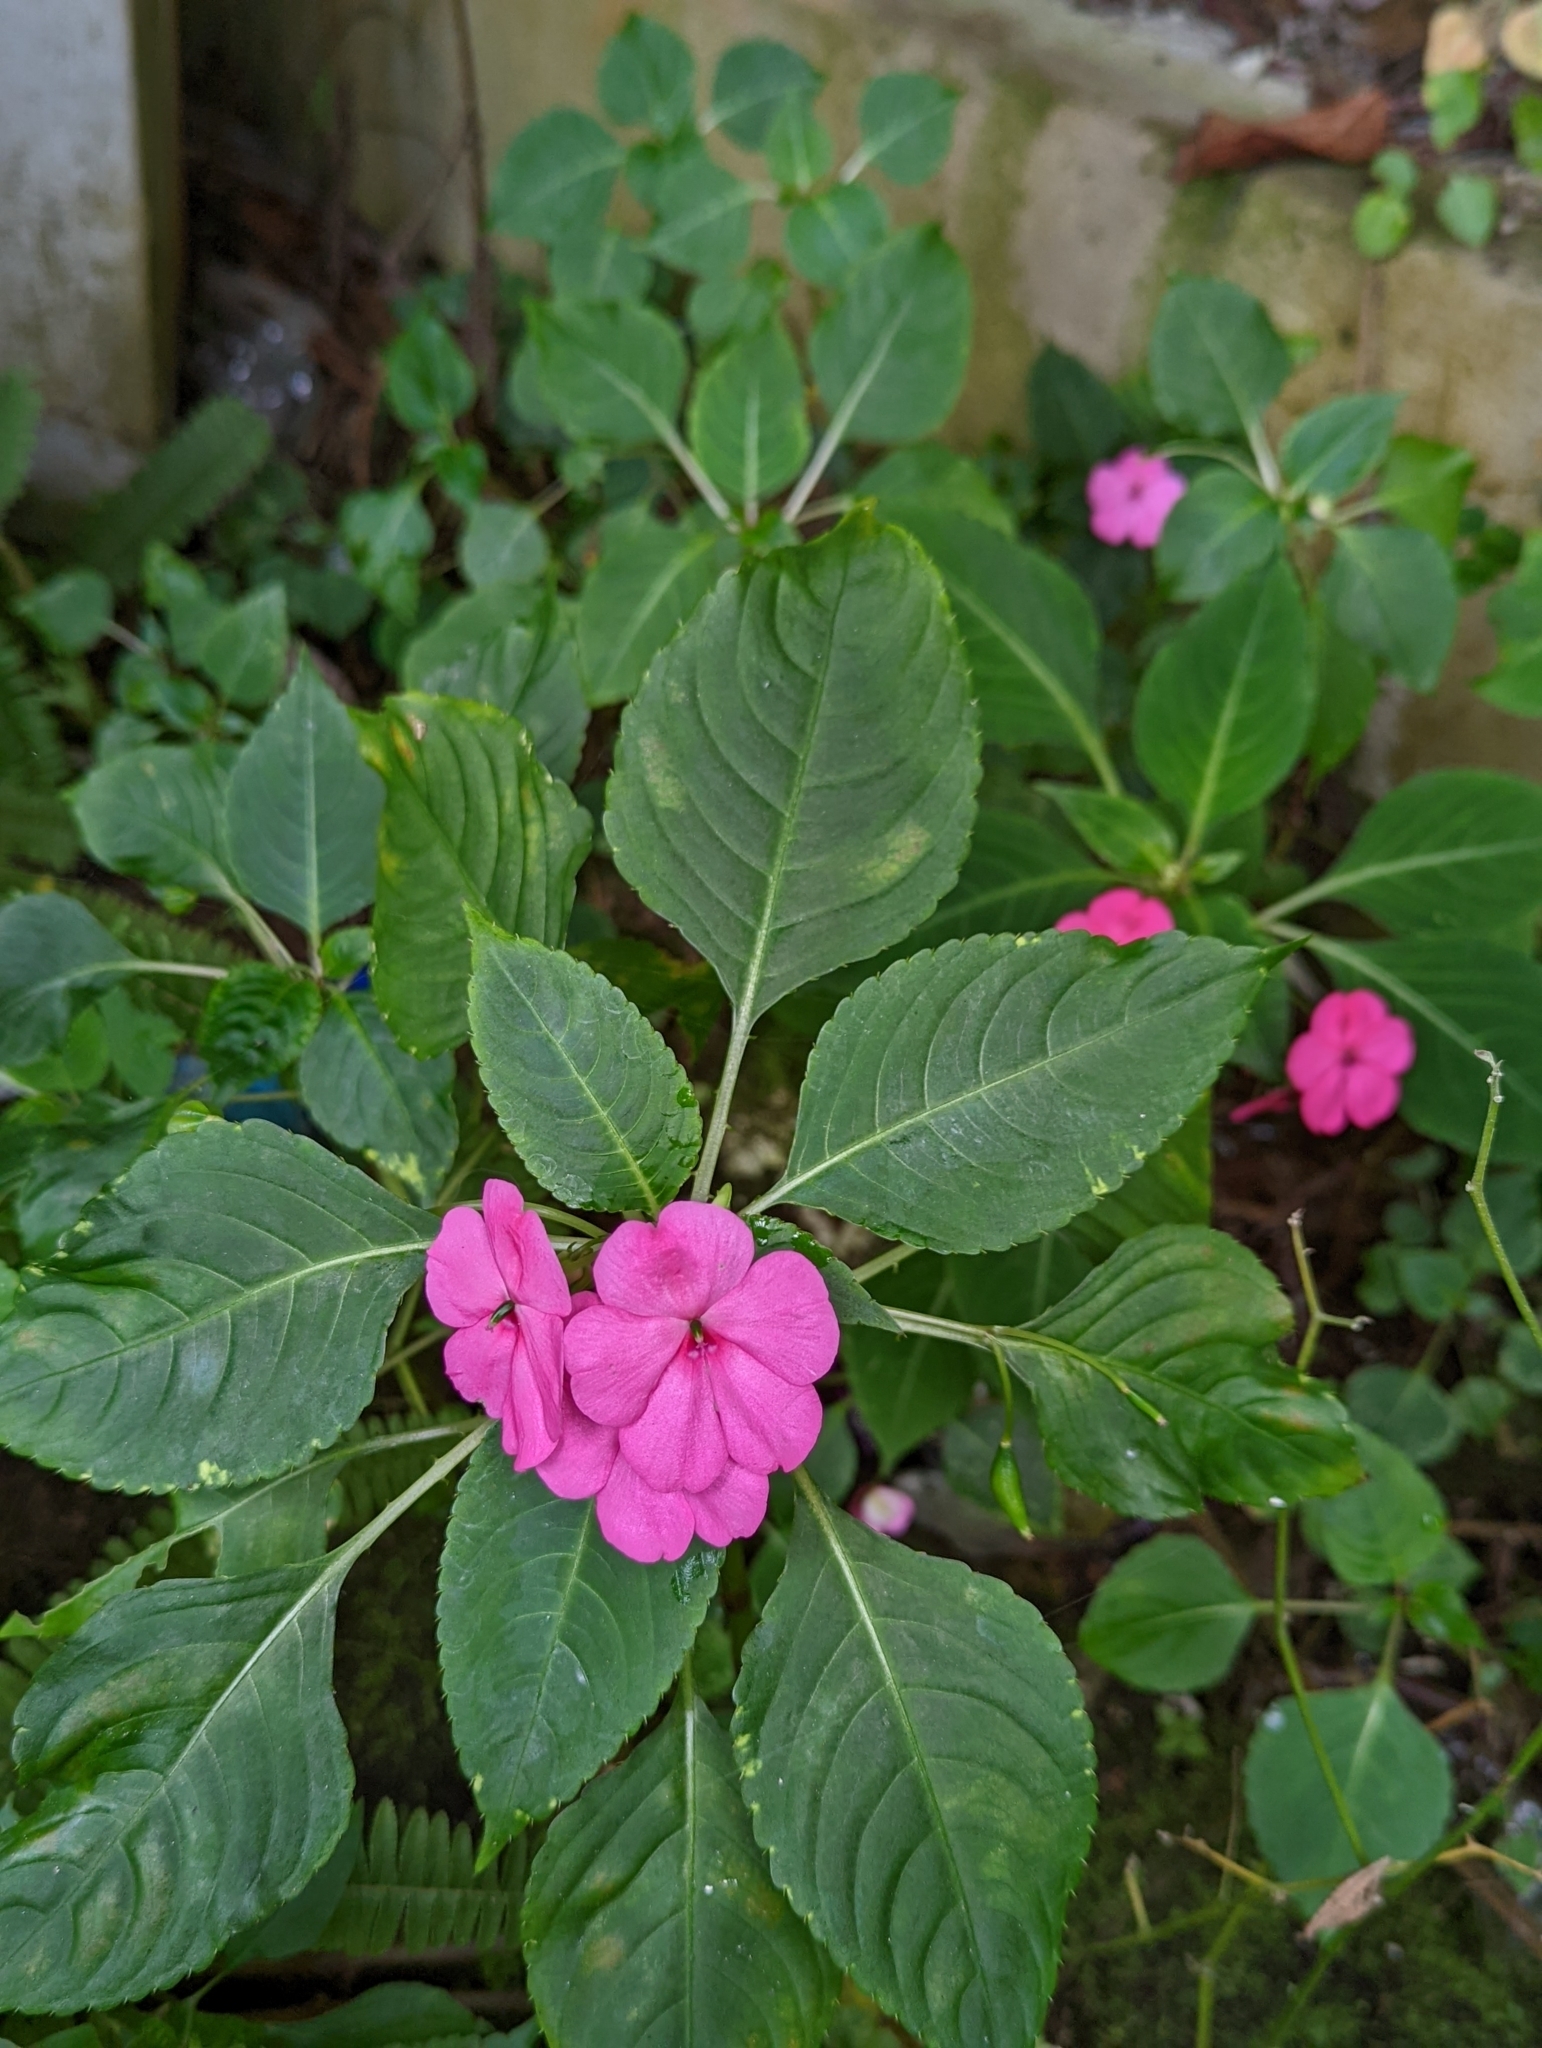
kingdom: Plantae
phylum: Tracheophyta
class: Magnoliopsida
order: Ericales
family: Balsaminaceae
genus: Impatiens
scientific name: Impatiens walleriana
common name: Buzzy lizzy
